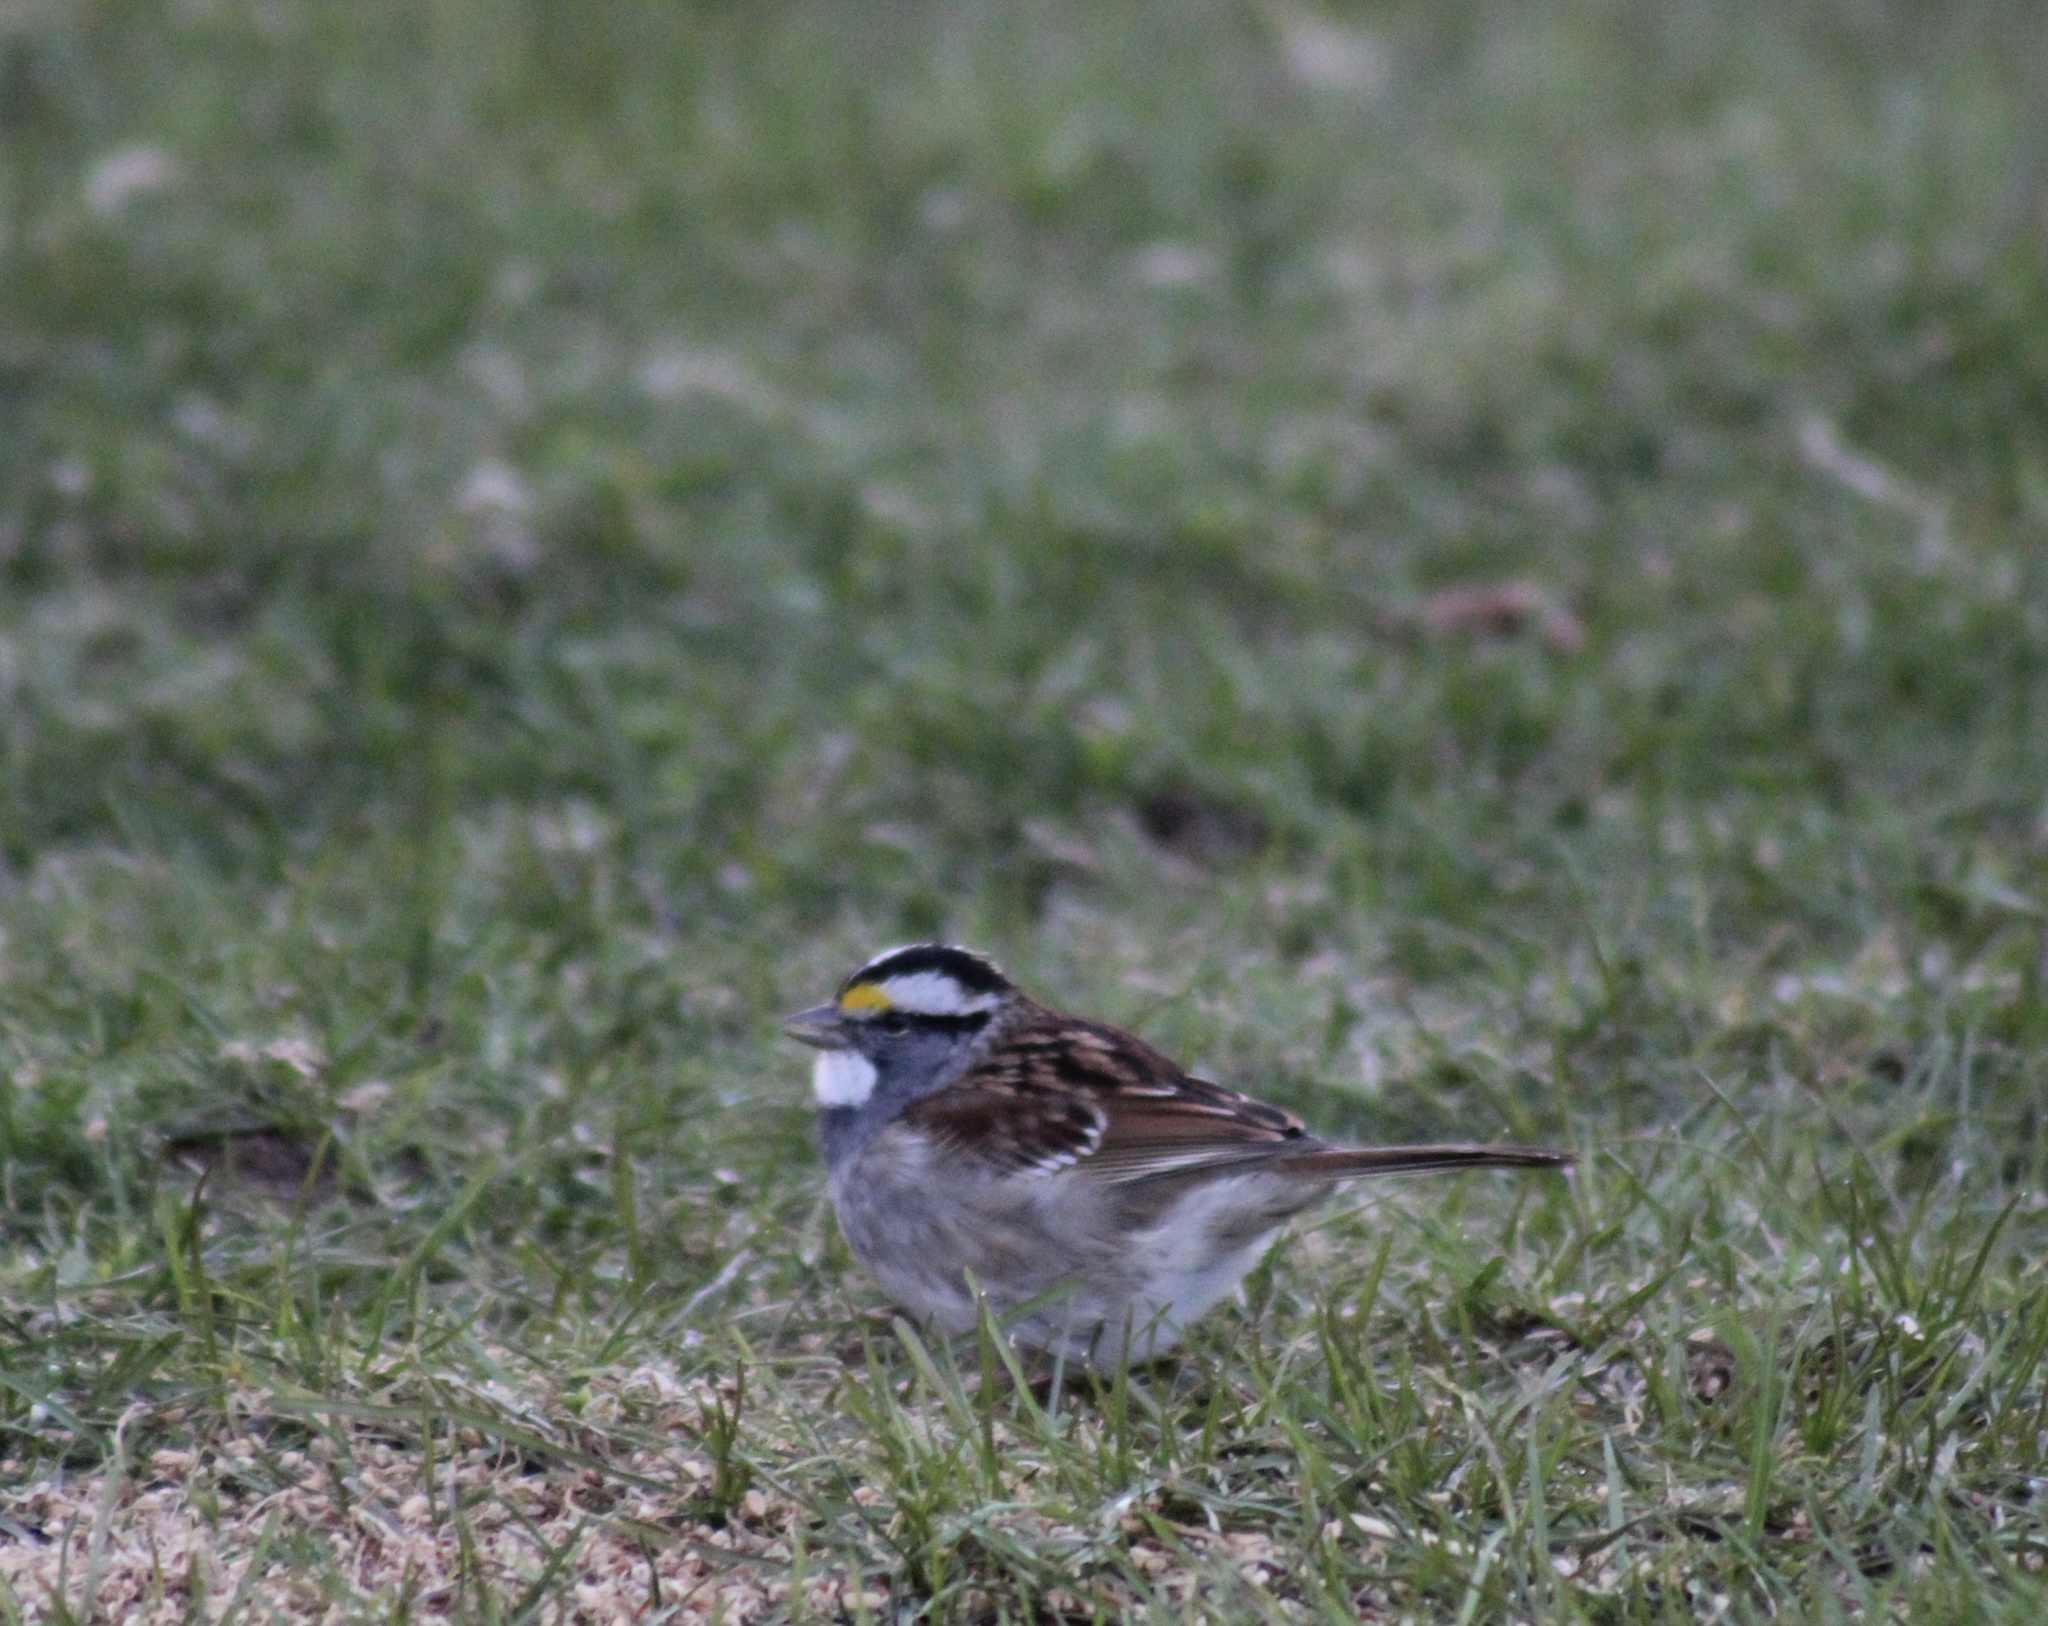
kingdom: Animalia
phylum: Chordata
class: Aves
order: Passeriformes
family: Passerellidae
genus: Zonotrichia
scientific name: Zonotrichia albicollis
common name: White-throated sparrow
